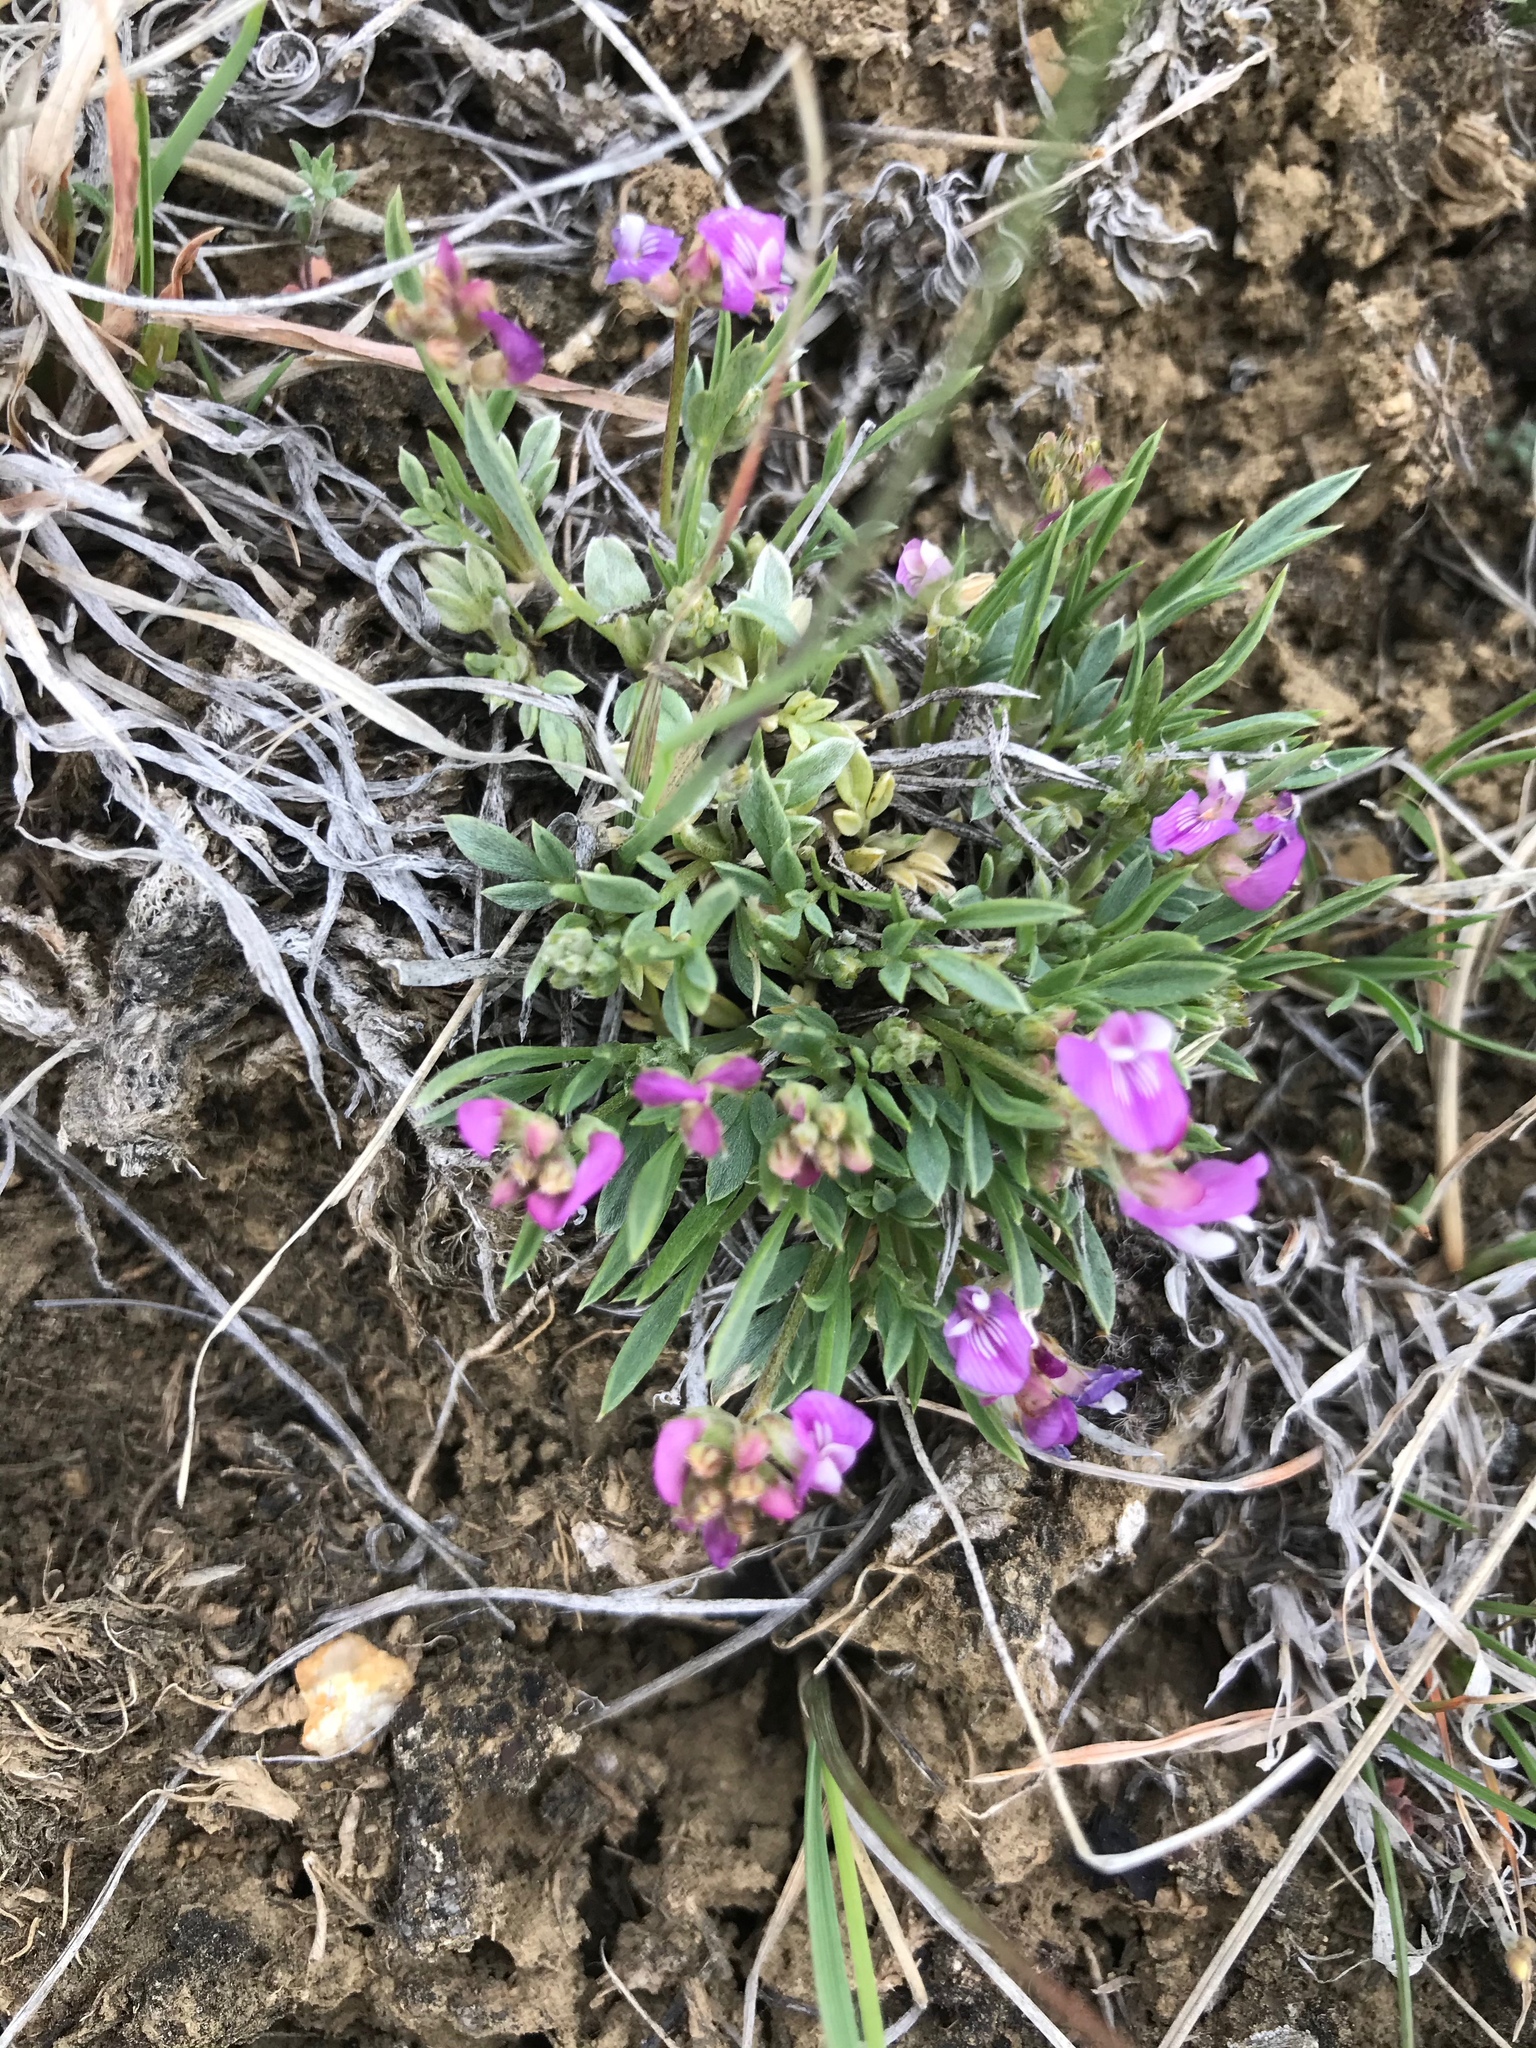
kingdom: Plantae
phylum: Tracheophyta
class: Magnoliopsida
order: Fabales
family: Fabaceae
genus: Astragalus
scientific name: Astragalus spatulatus
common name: Draba milk-vetch
